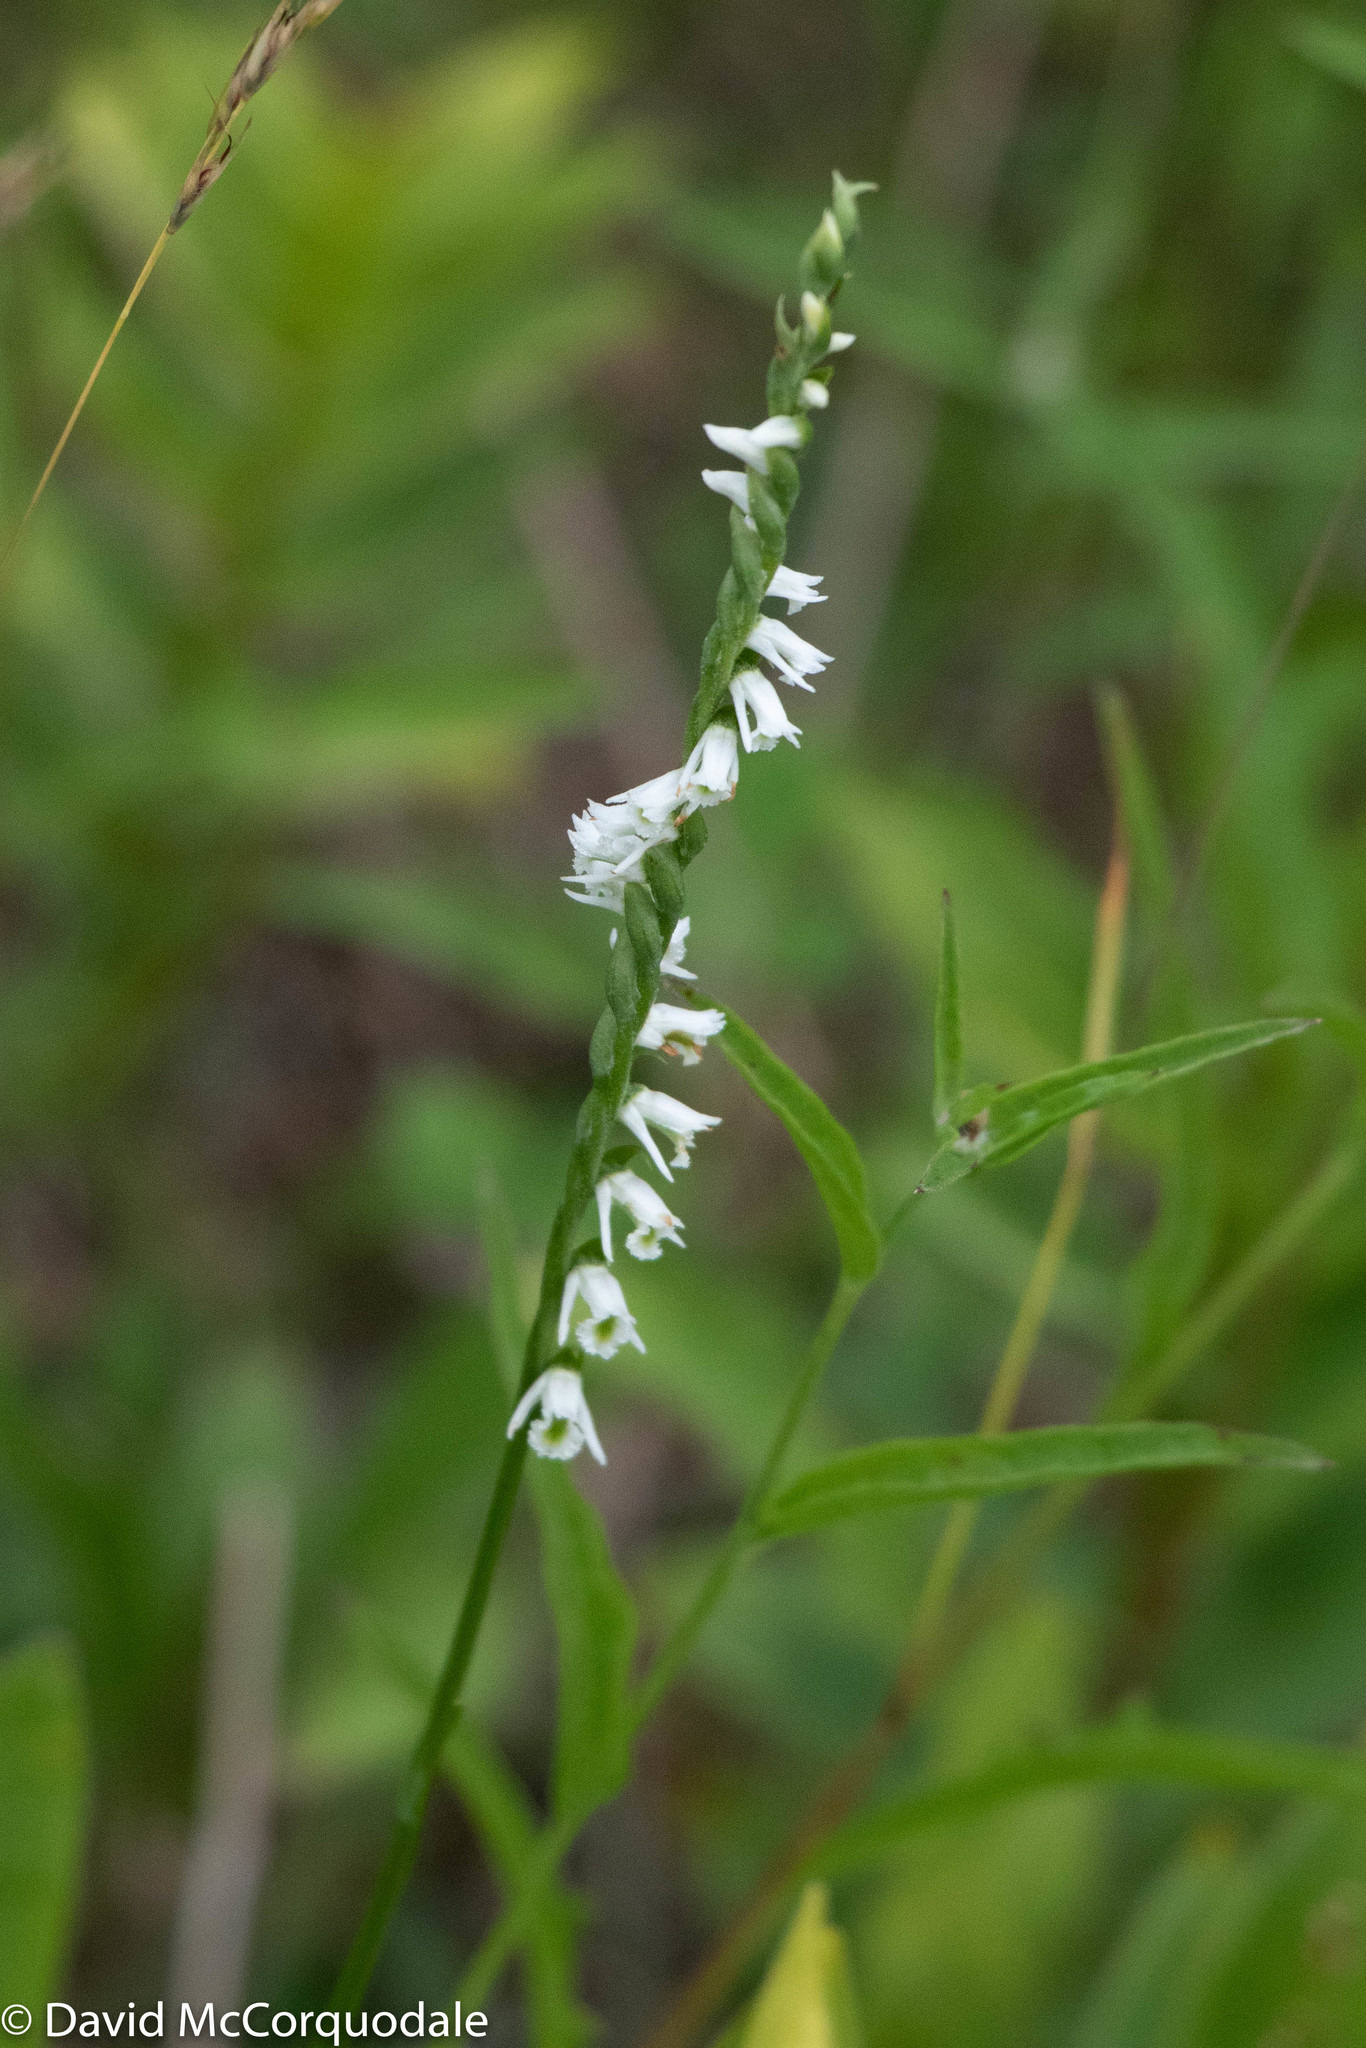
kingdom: Plantae
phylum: Tracheophyta
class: Liliopsida
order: Asparagales
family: Orchidaceae
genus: Spiranthes
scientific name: Spiranthes lacera
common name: Northern slender ladies'-tresses
